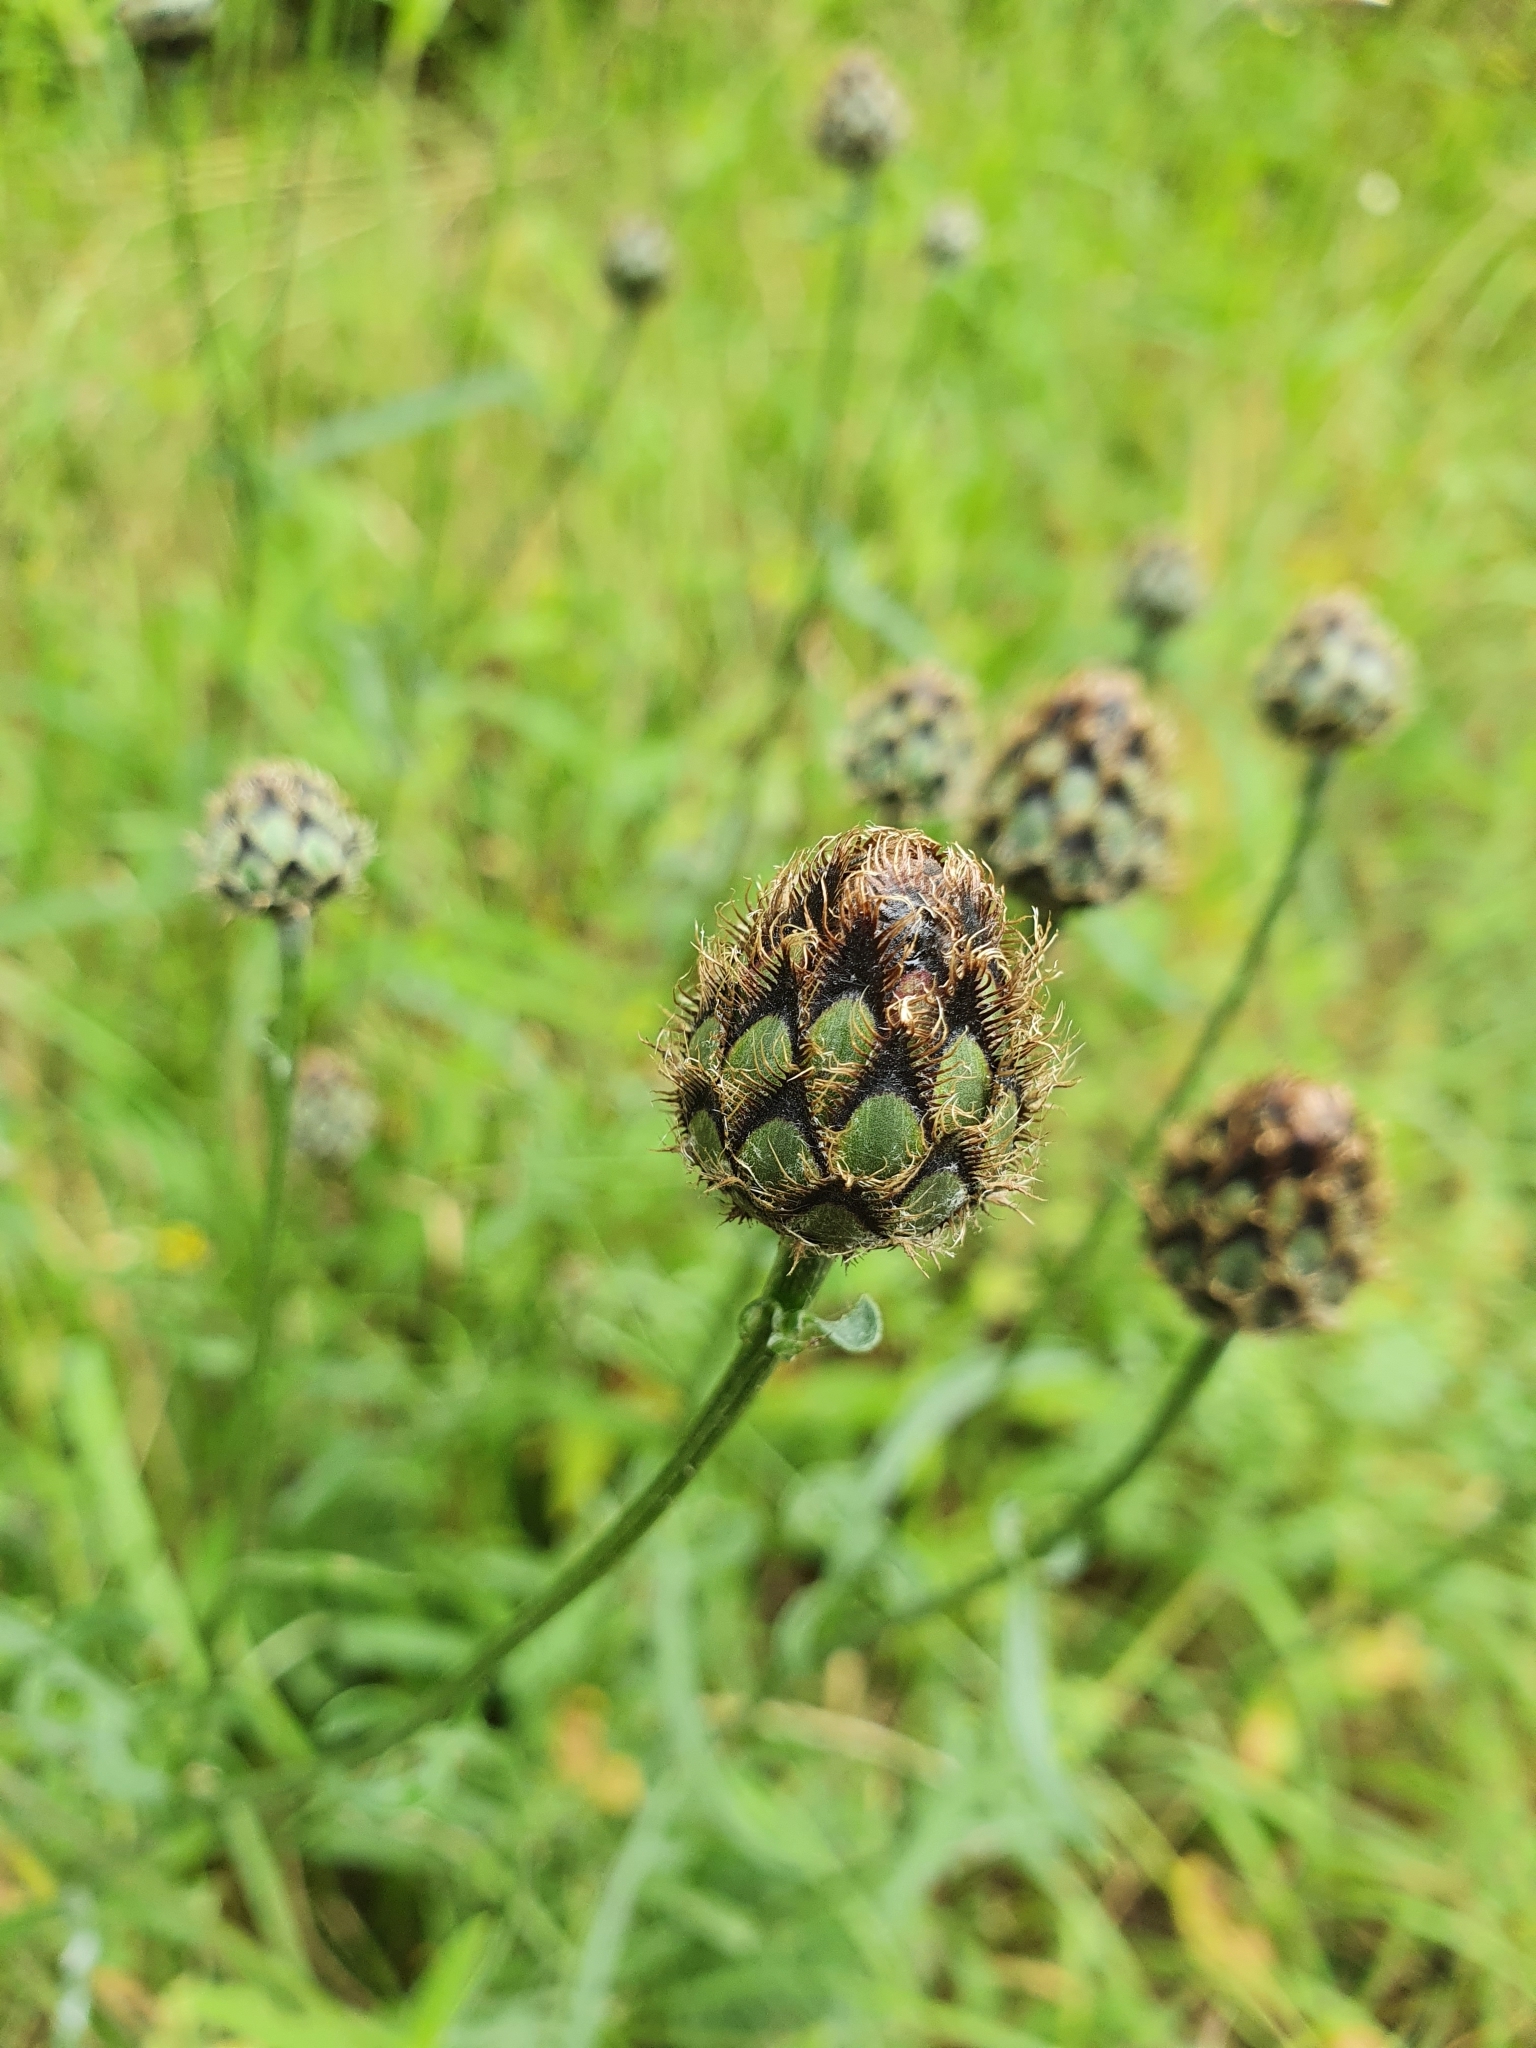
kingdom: Plantae
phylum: Tracheophyta
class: Magnoliopsida
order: Asterales
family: Asteraceae
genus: Centaurea
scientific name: Centaurea scabiosa
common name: Greater knapweed
